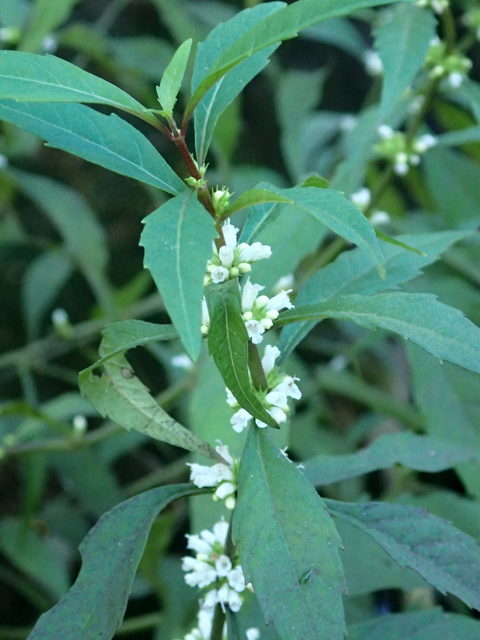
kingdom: Plantae
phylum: Tracheophyta
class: Magnoliopsida
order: Lamiales
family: Lamiaceae
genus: Lycopus
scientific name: Lycopus rubellus
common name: Stalked bugleweed
